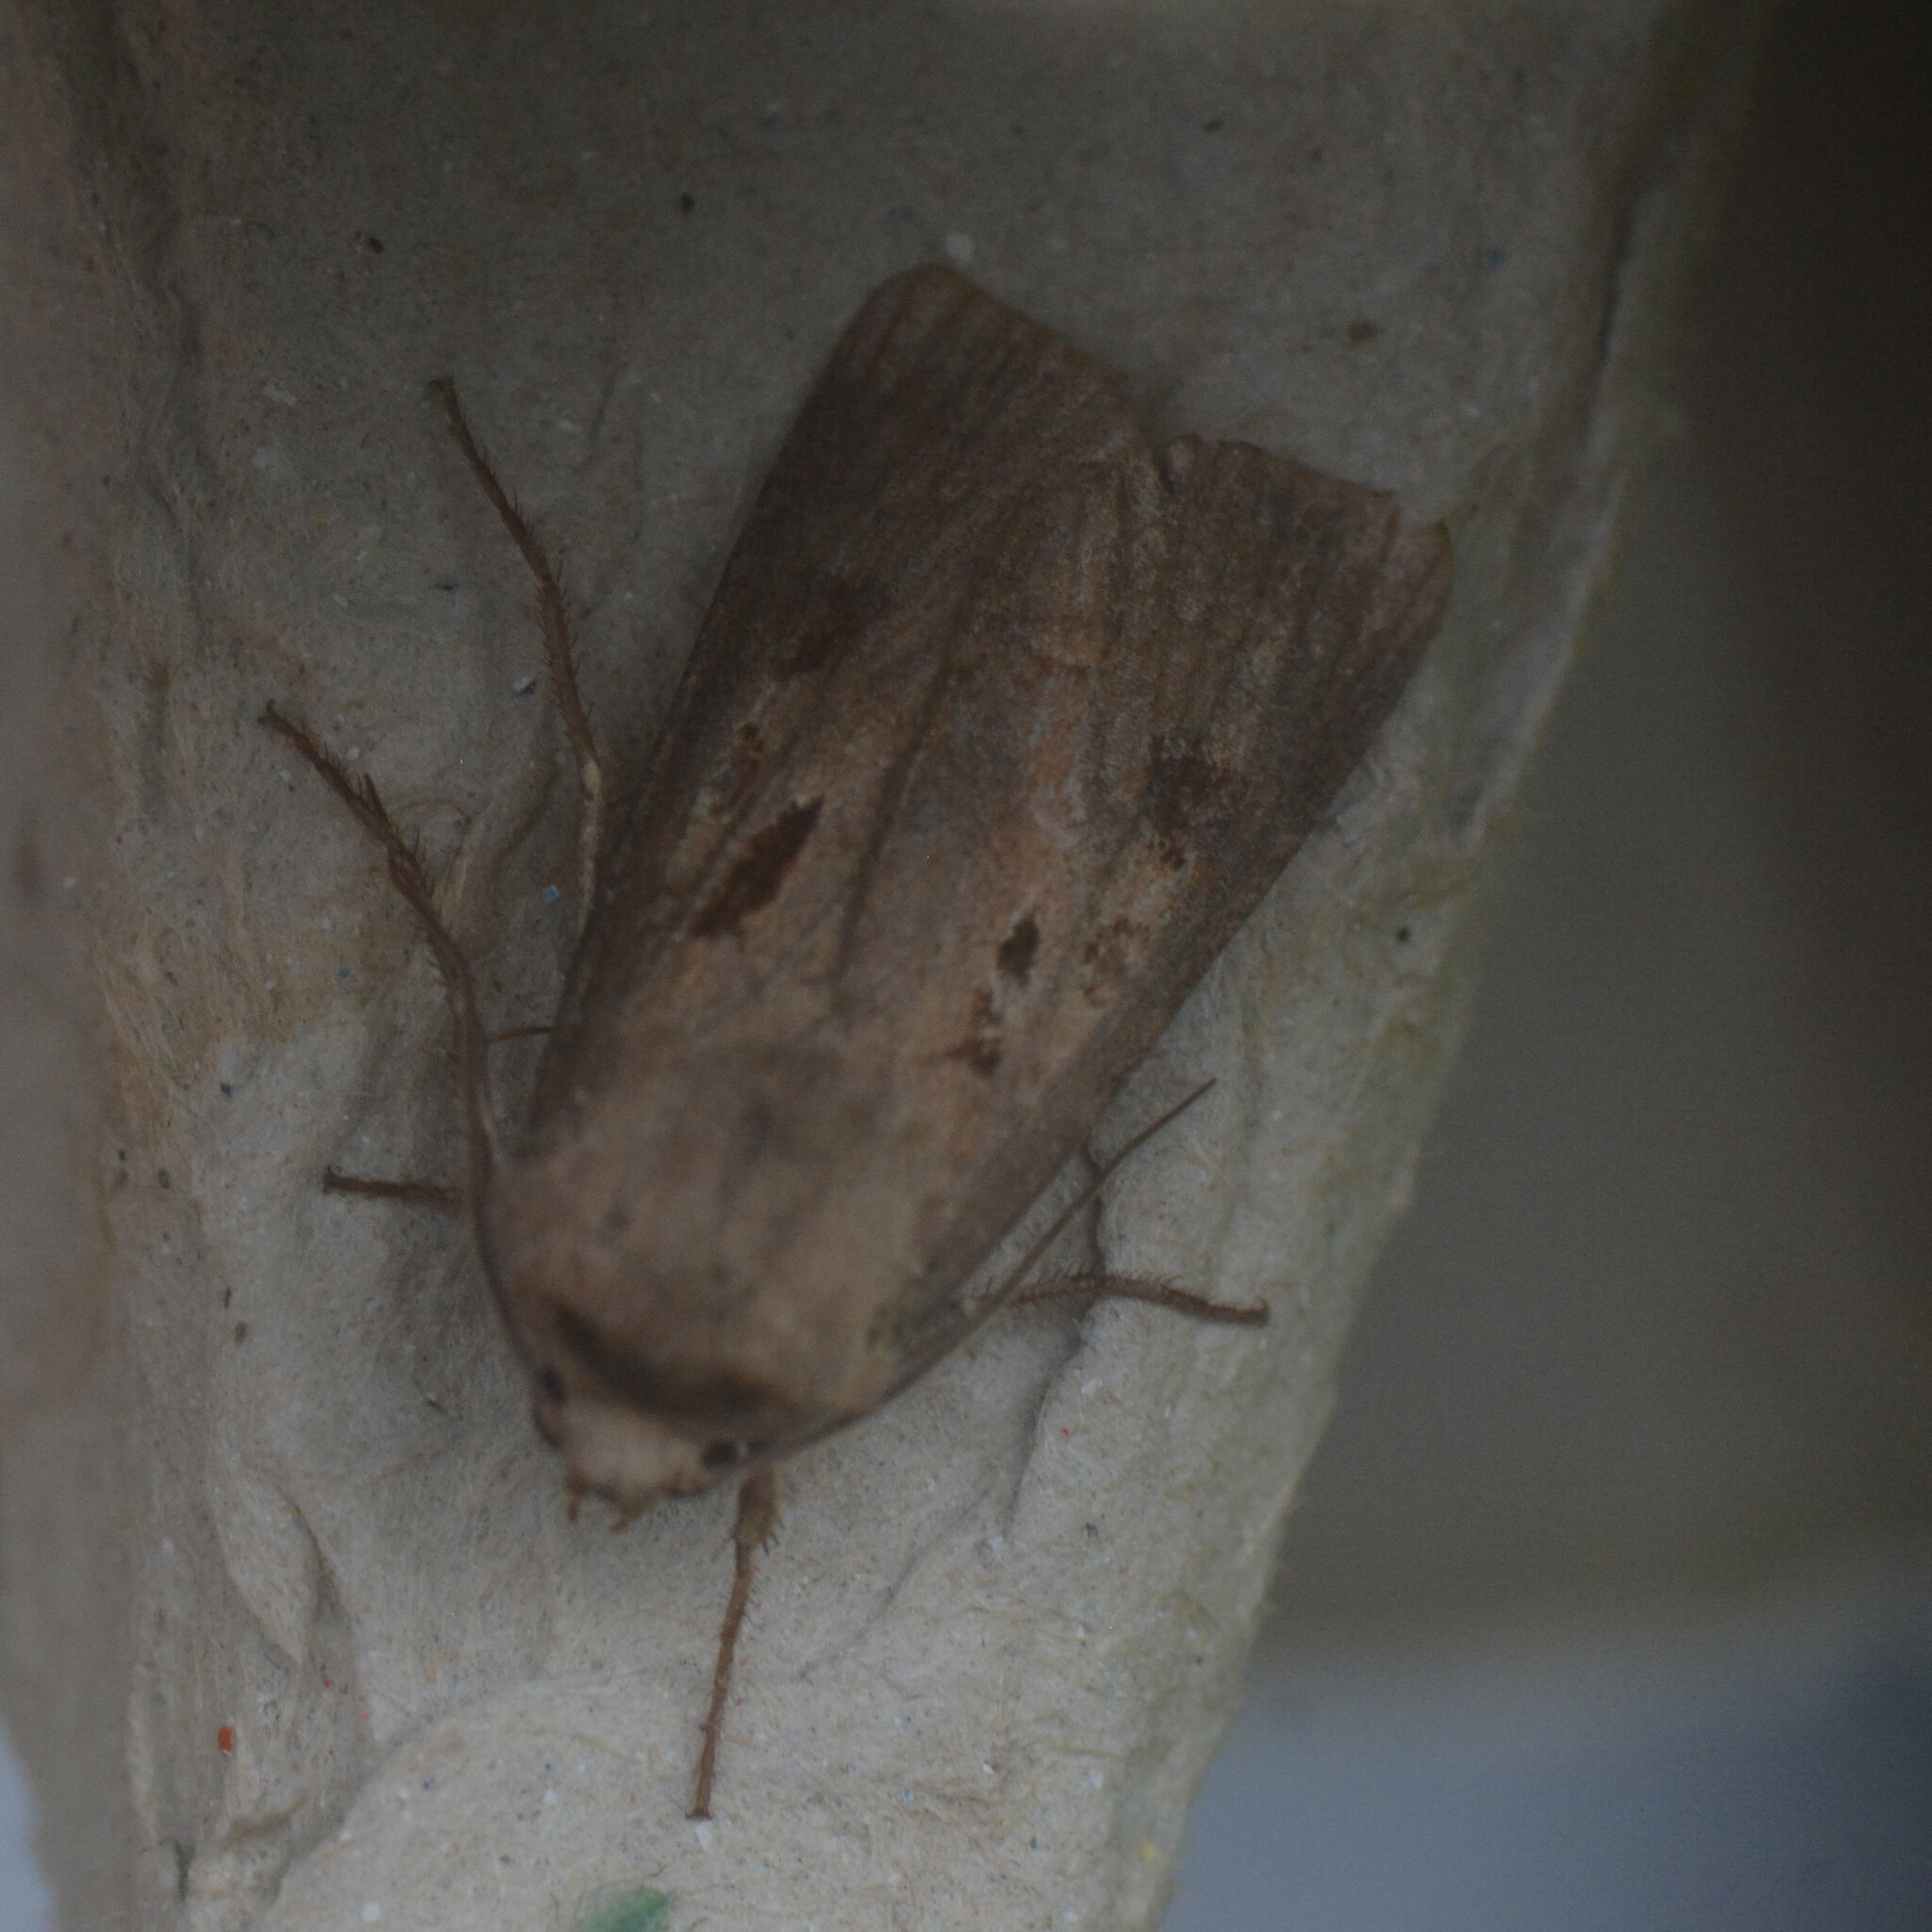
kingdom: Animalia
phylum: Arthropoda
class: Insecta
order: Lepidoptera
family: Noctuidae
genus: Agrotis
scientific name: Agrotis exclamationis
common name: Heart and dart
